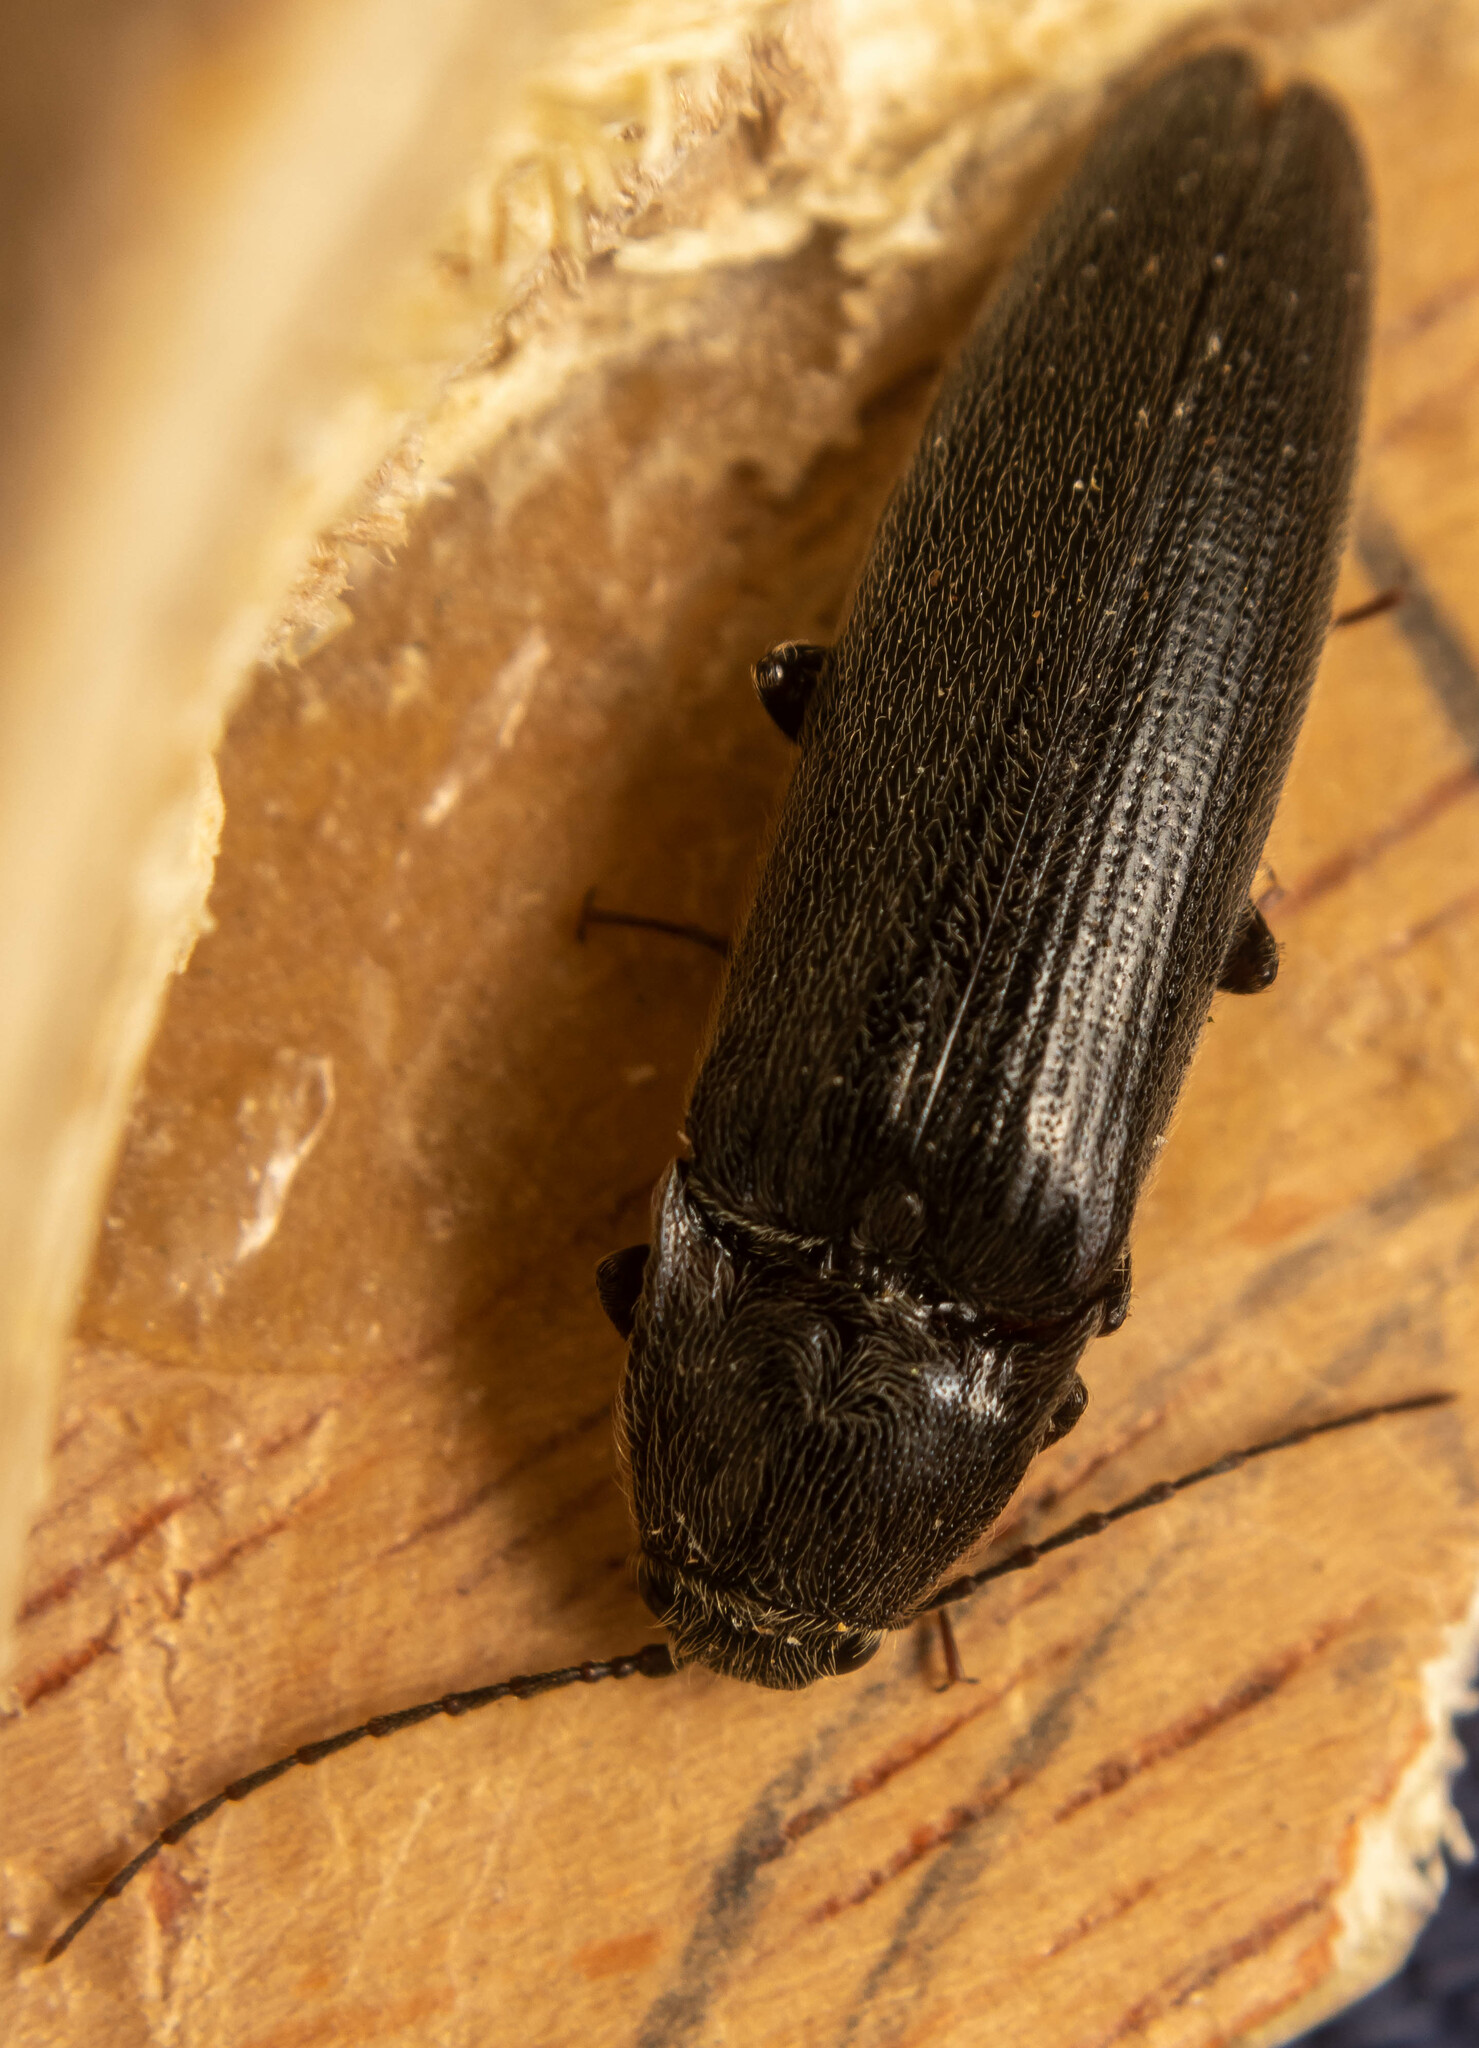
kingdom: Animalia
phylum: Arthropoda
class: Insecta
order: Coleoptera
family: Elateridae
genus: Melanotus
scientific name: Melanotus castanipes
